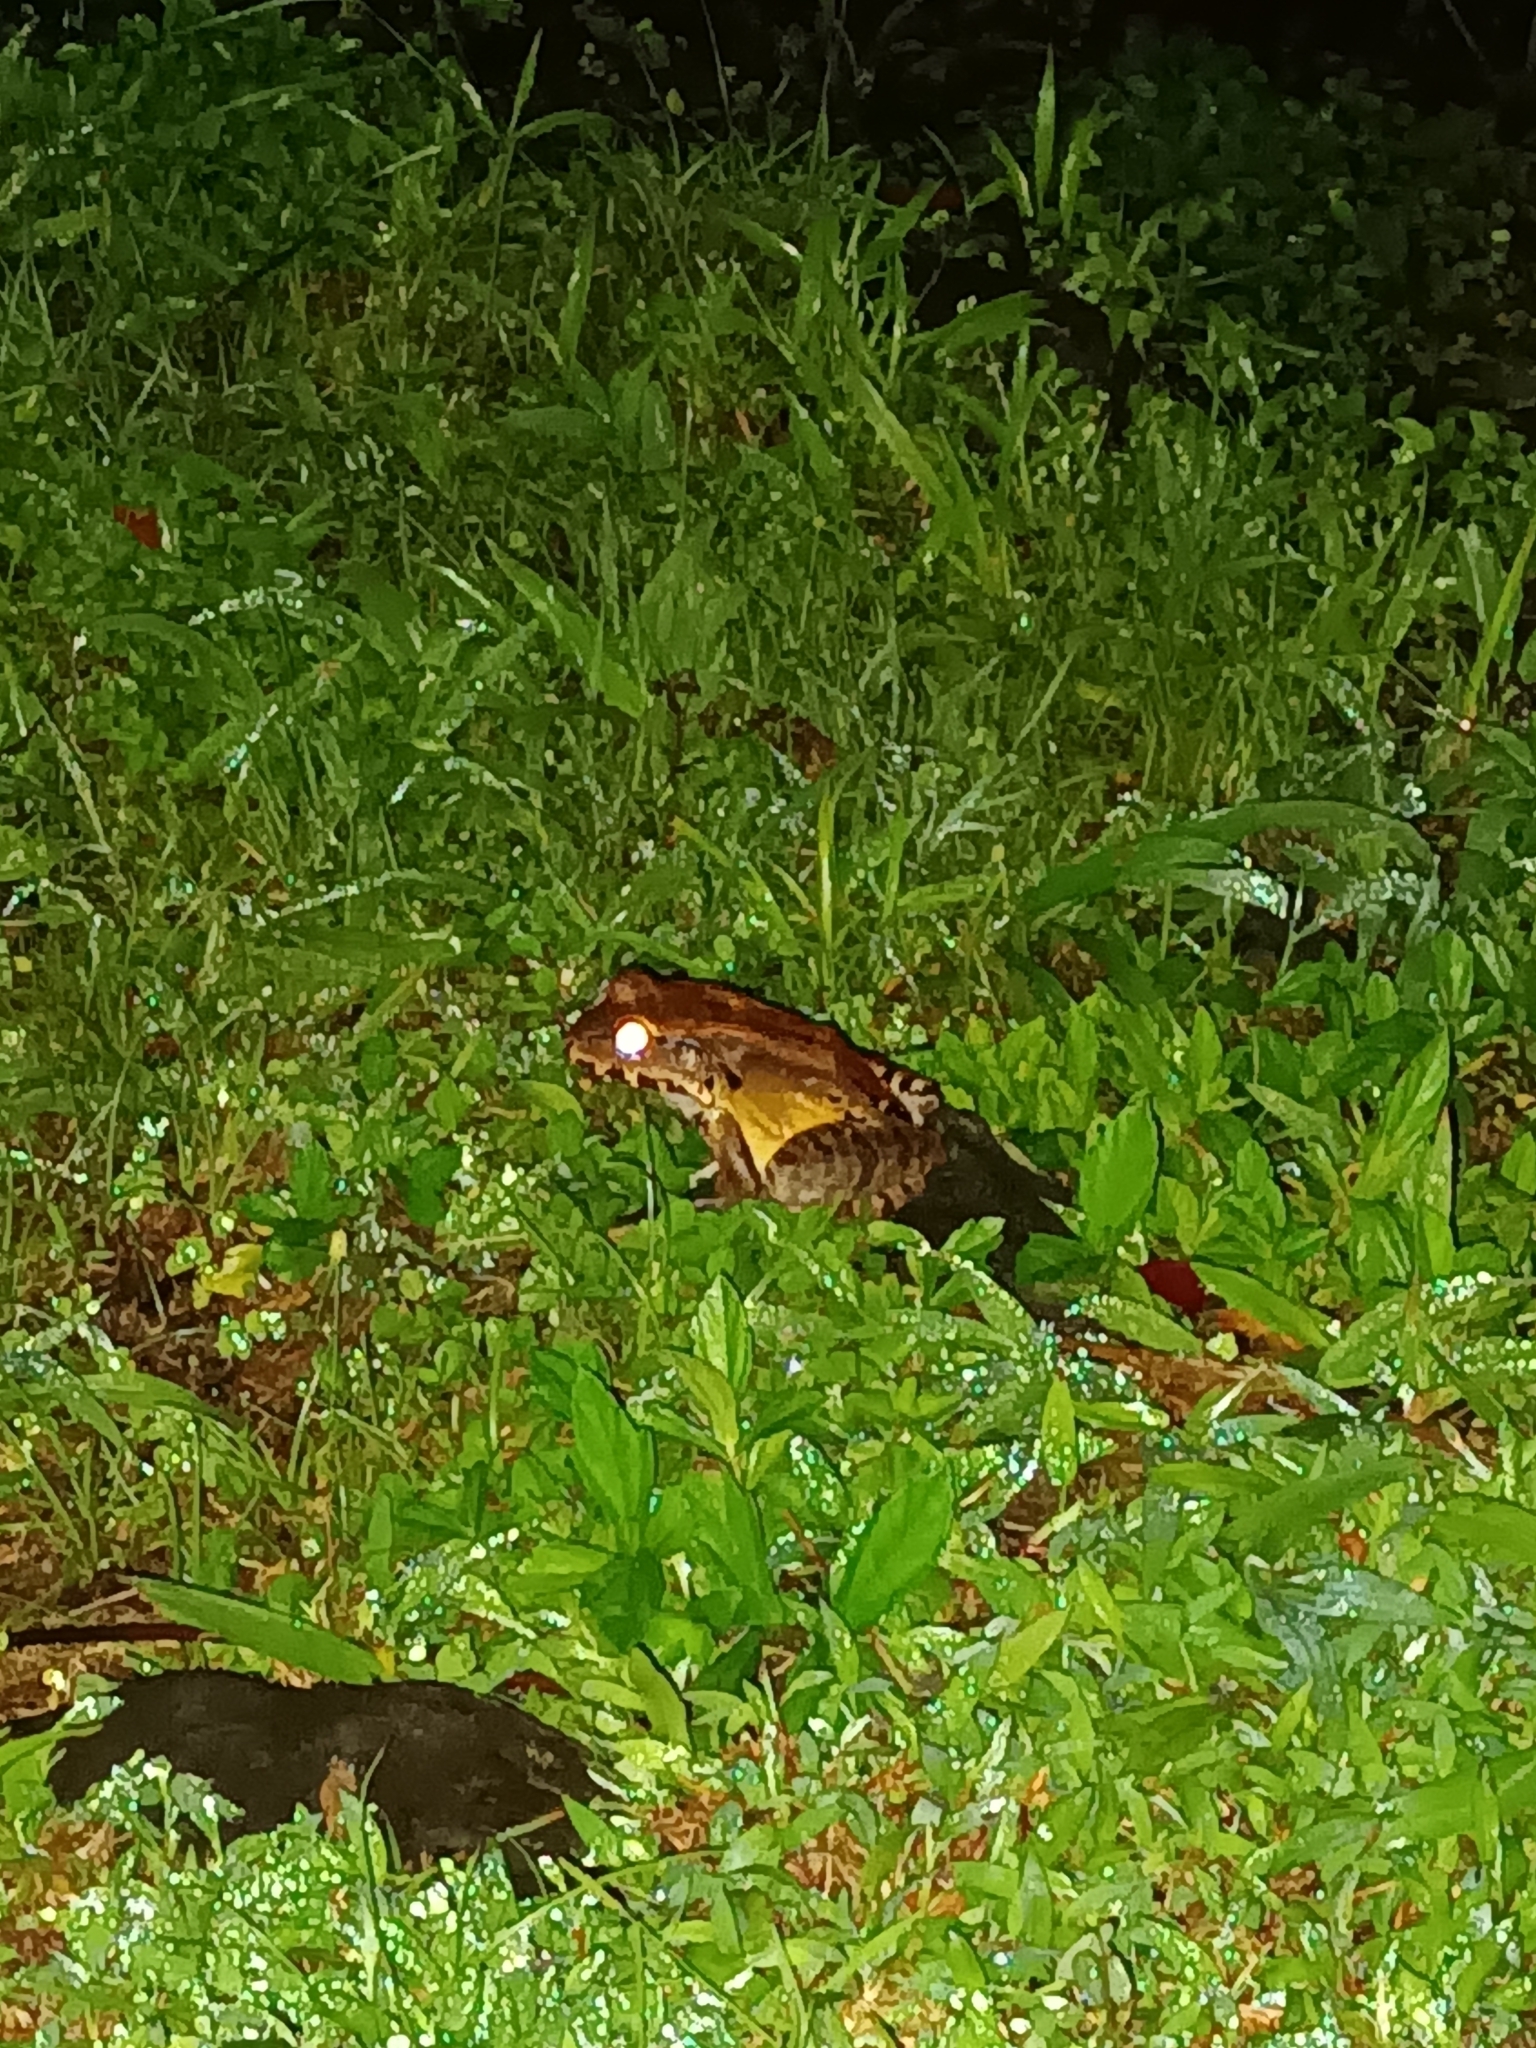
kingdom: Animalia
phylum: Chordata
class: Amphibia
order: Anura
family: Leptodactylidae
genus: Leptodactylus
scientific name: Leptodactylus savagei
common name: Savage's thin-toed frog
